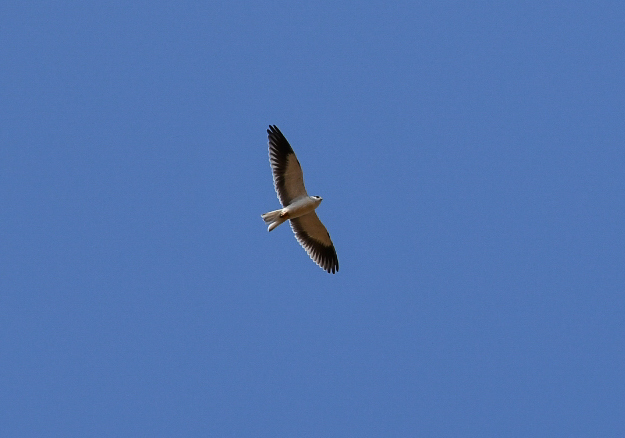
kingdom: Animalia
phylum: Chordata
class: Aves
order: Accipitriformes
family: Accipitridae
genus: Elanus
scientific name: Elanus caeruleus
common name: Black-winged kite
